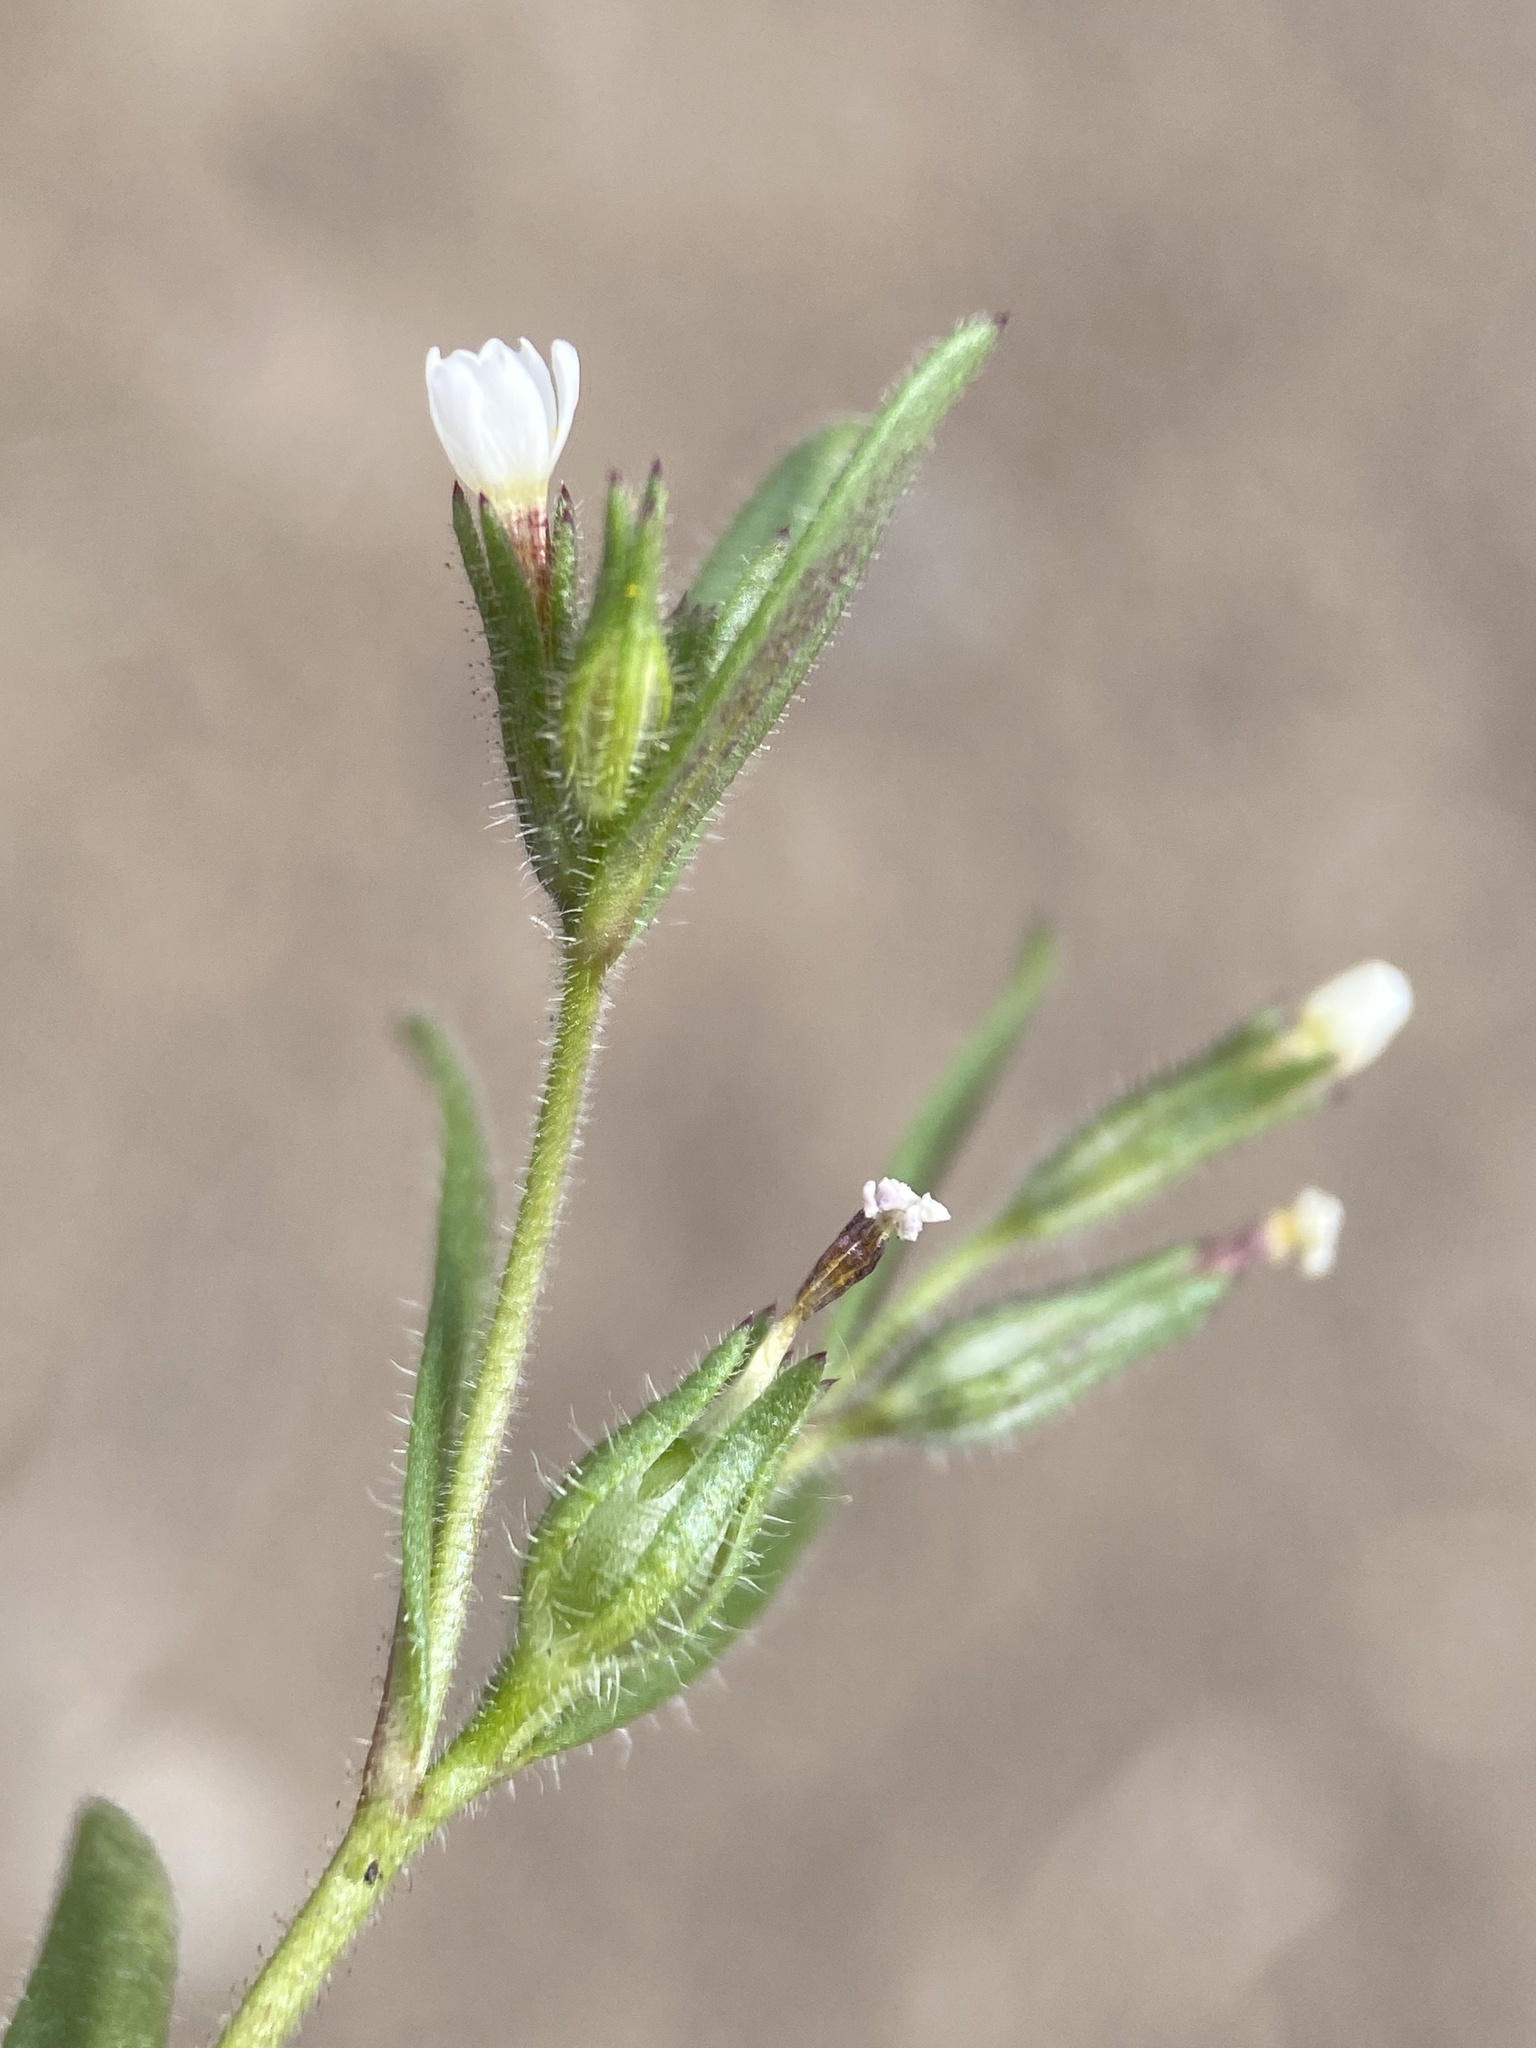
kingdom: Plantae
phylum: Tracheophyta
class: Magnoliopsida
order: Ericales
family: Polemoniaceae
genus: Phlox
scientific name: Phlox gracilis
